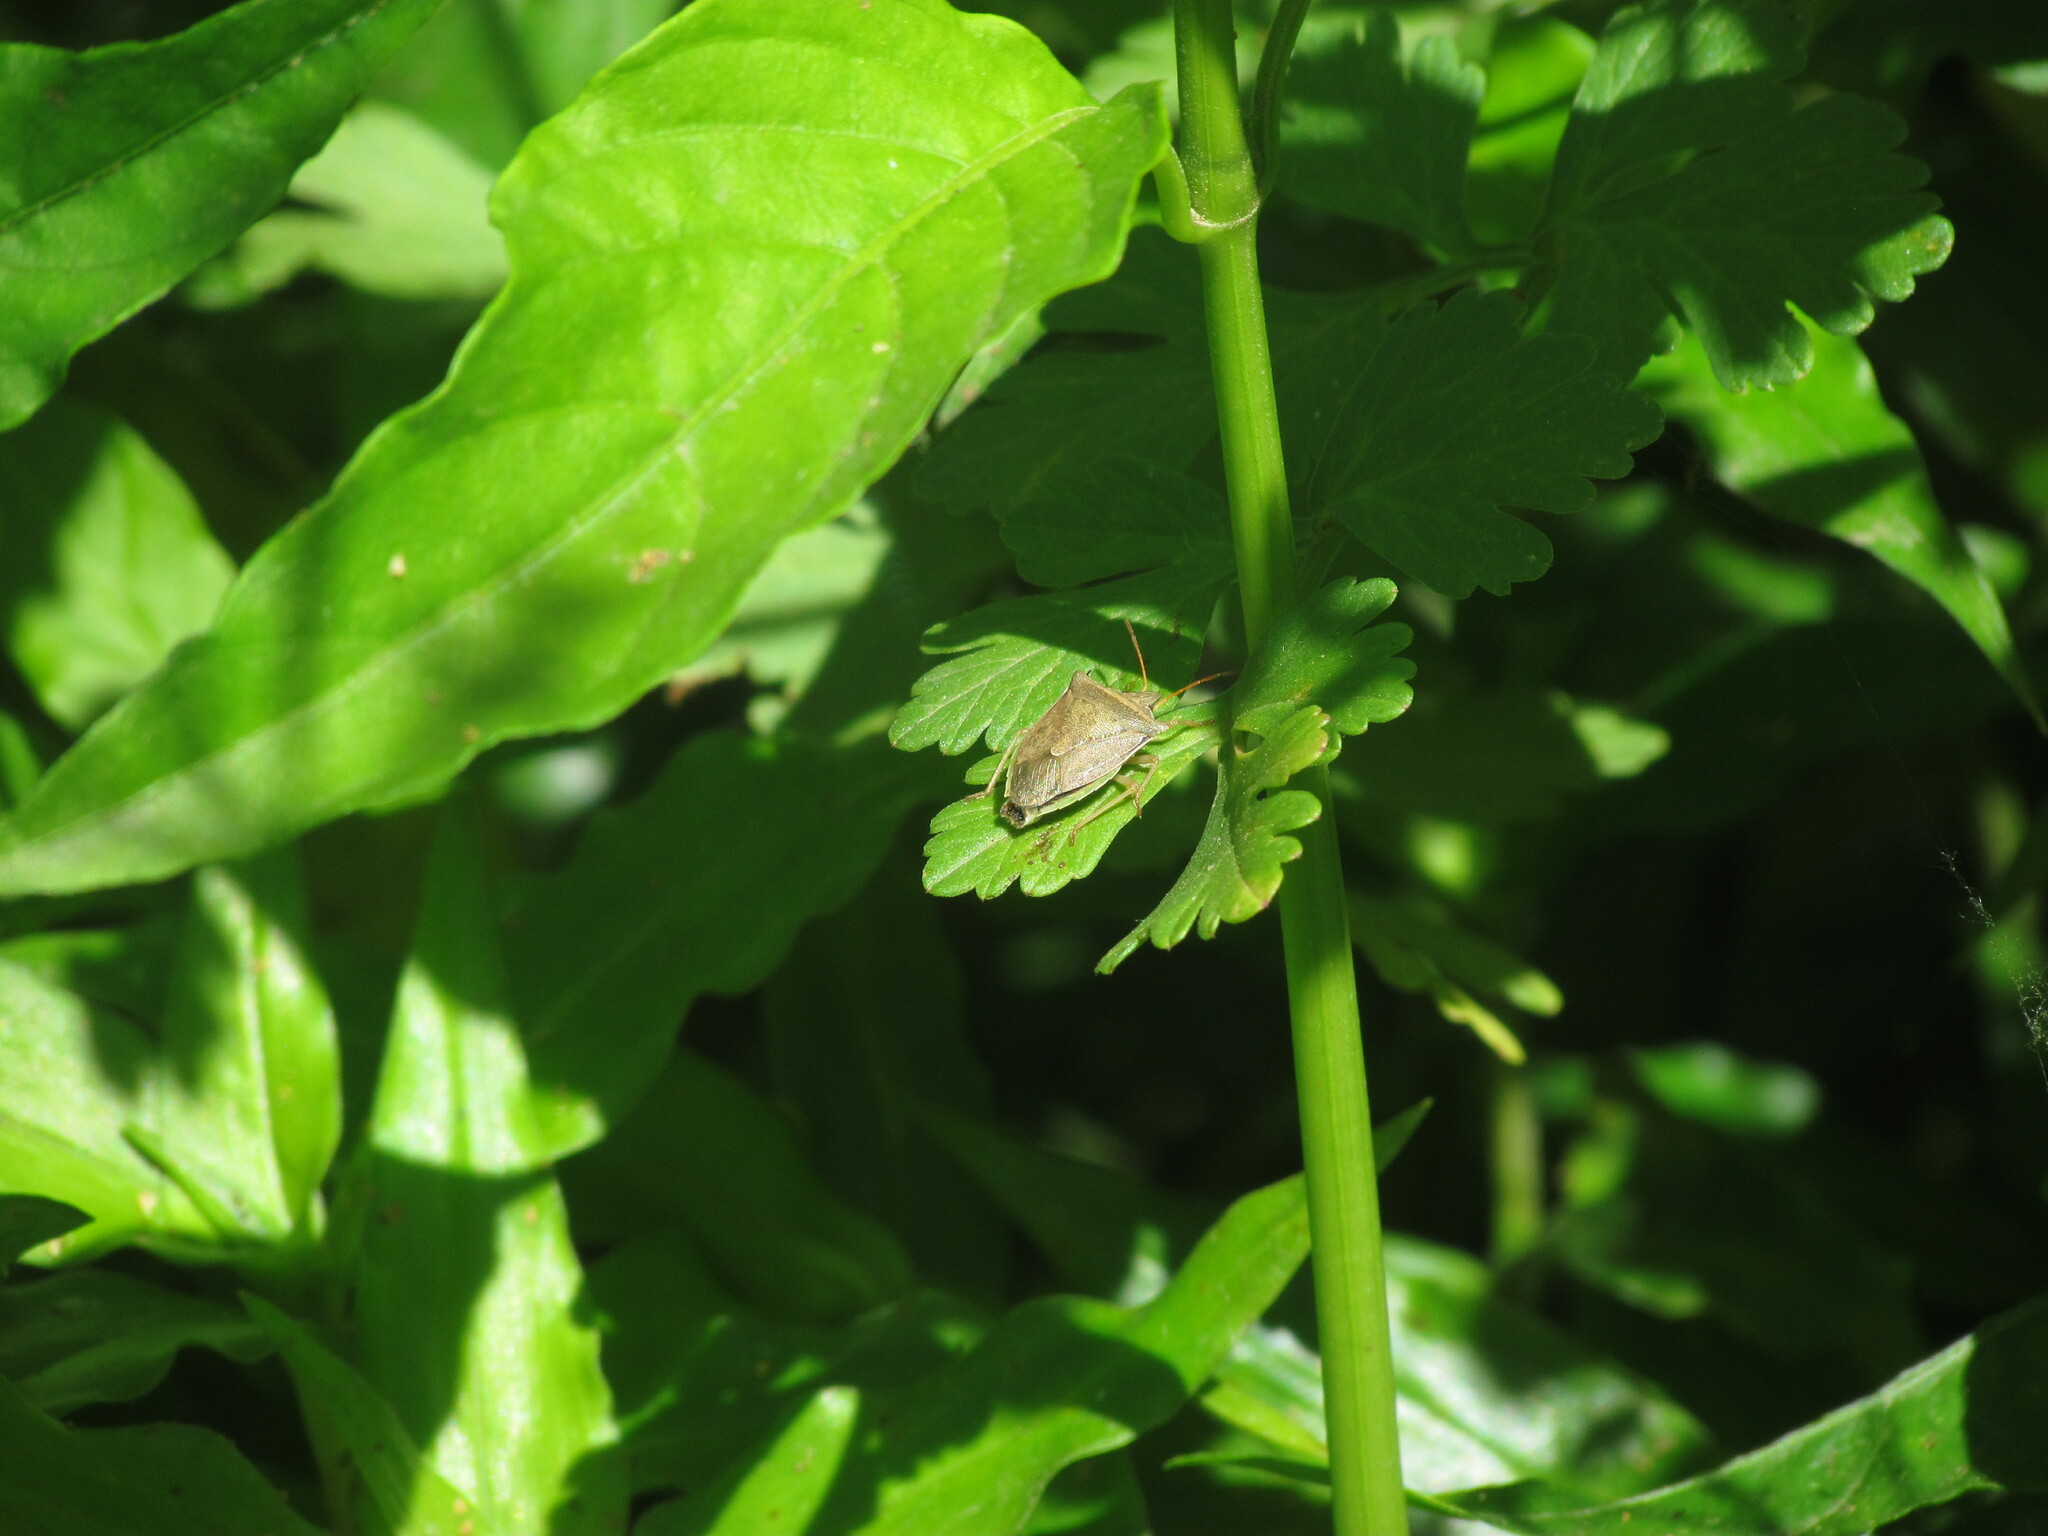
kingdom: Animalia
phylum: Arthropoda
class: Insecta
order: Hemiptera
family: Pentatomidae
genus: Diceraeus
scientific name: Diceraeus furcatus
